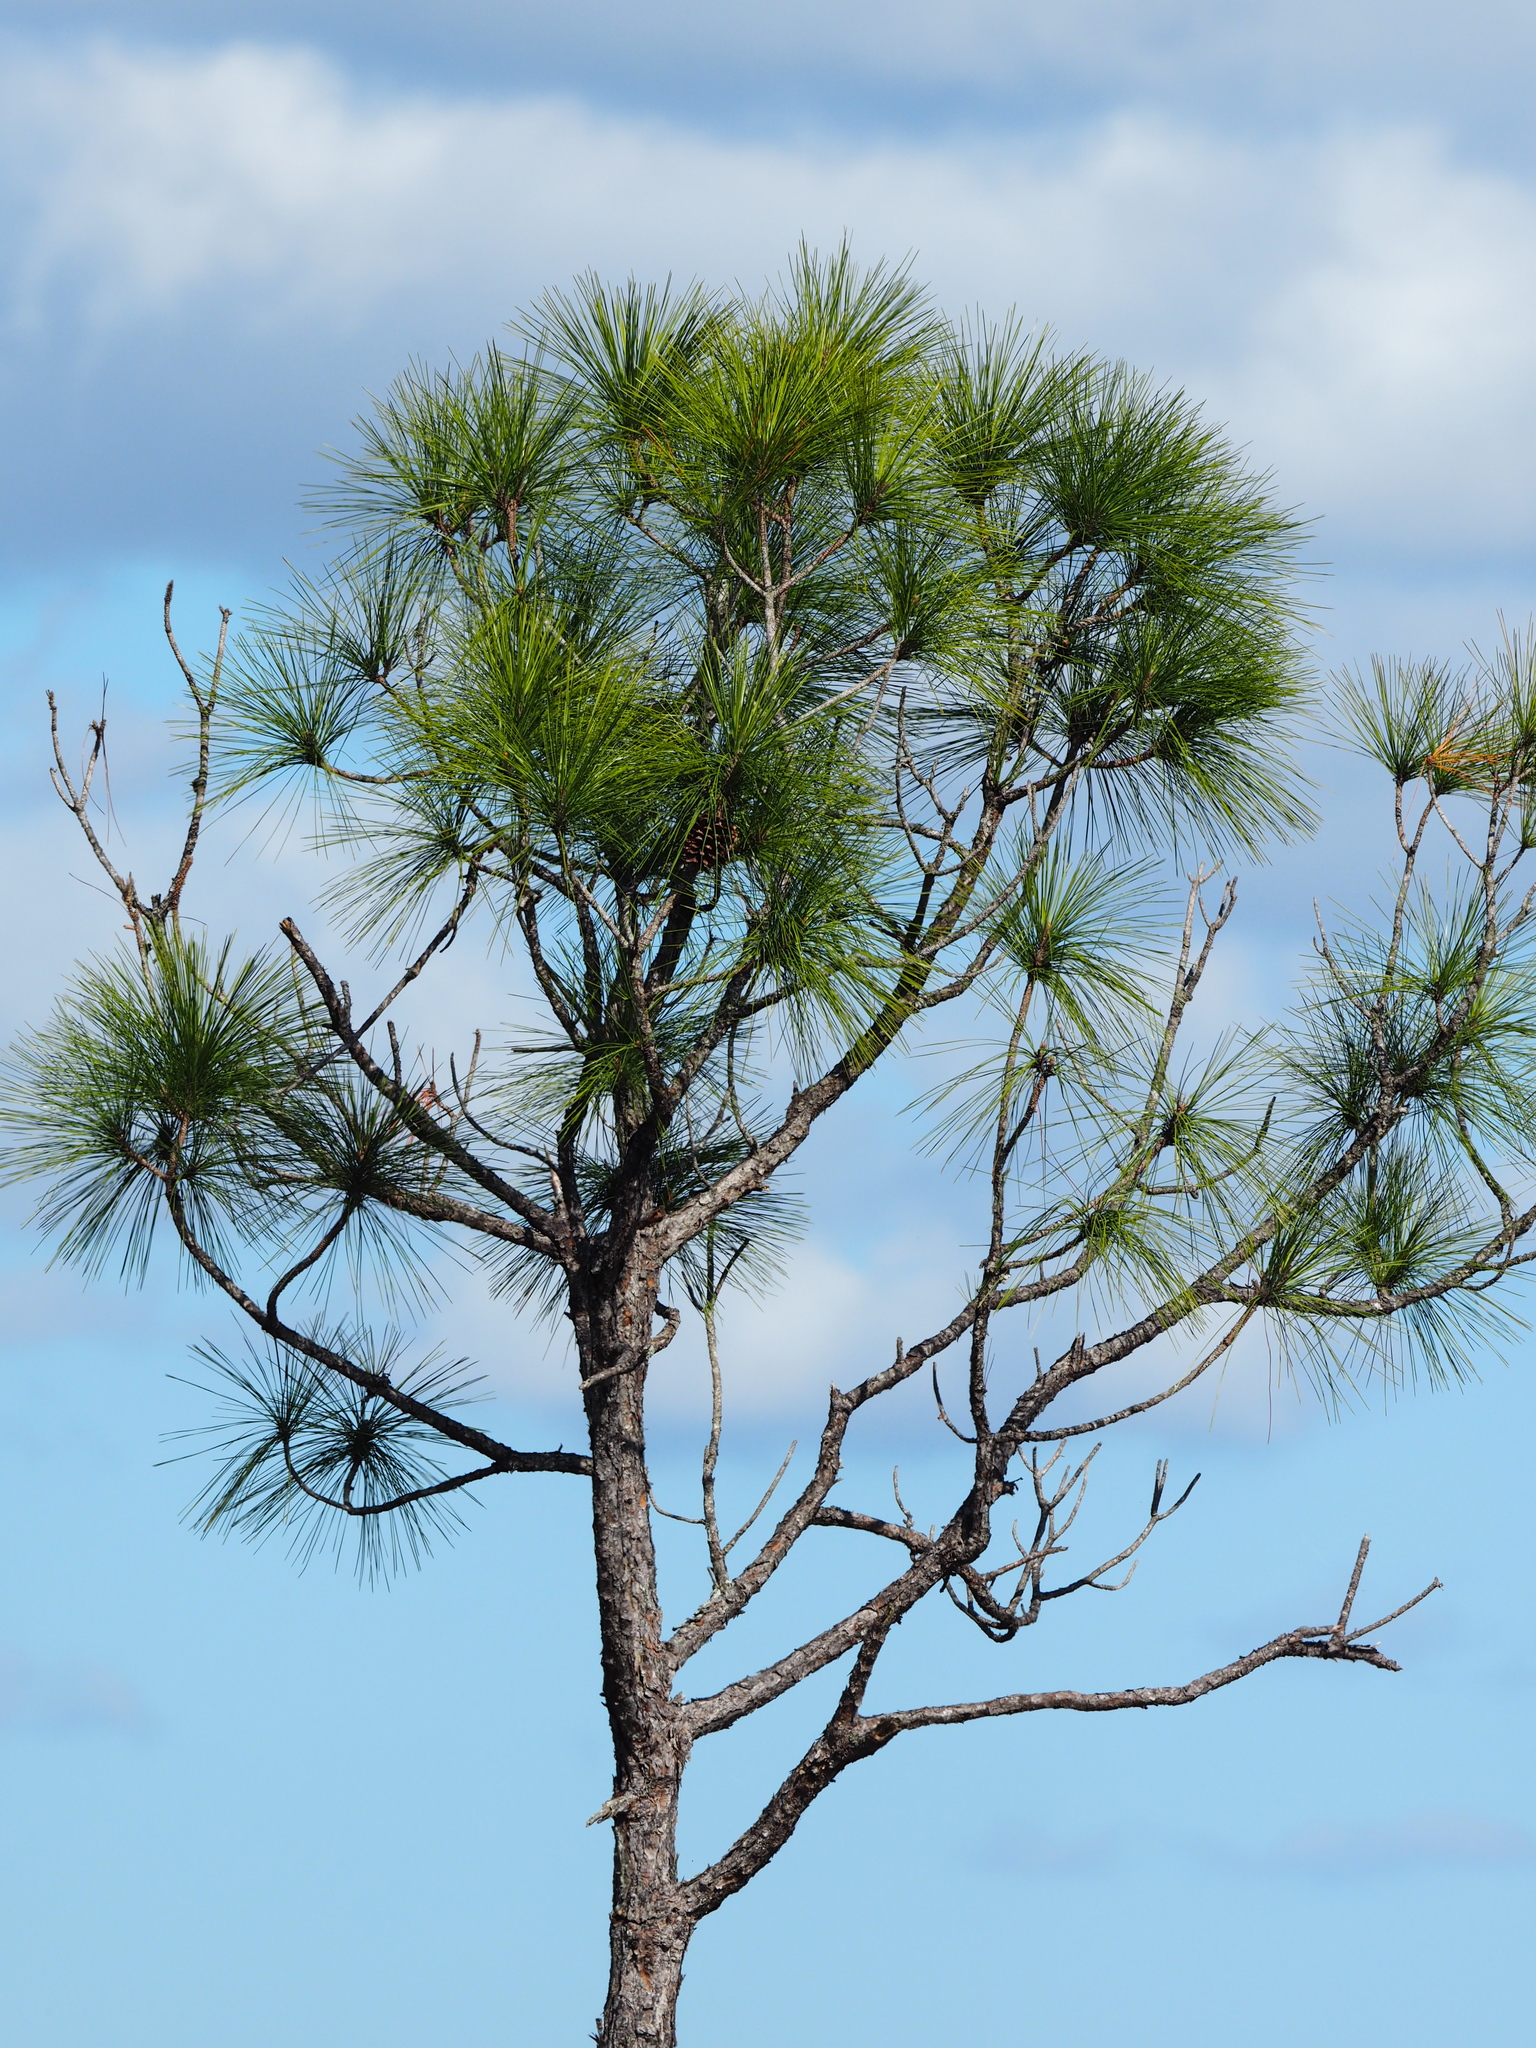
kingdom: Plantae
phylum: Tracheophyta
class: Pinopsida
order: Pinales
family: Pinaceae
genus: Pinus
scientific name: Pinus elliottii
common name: Slash pine
